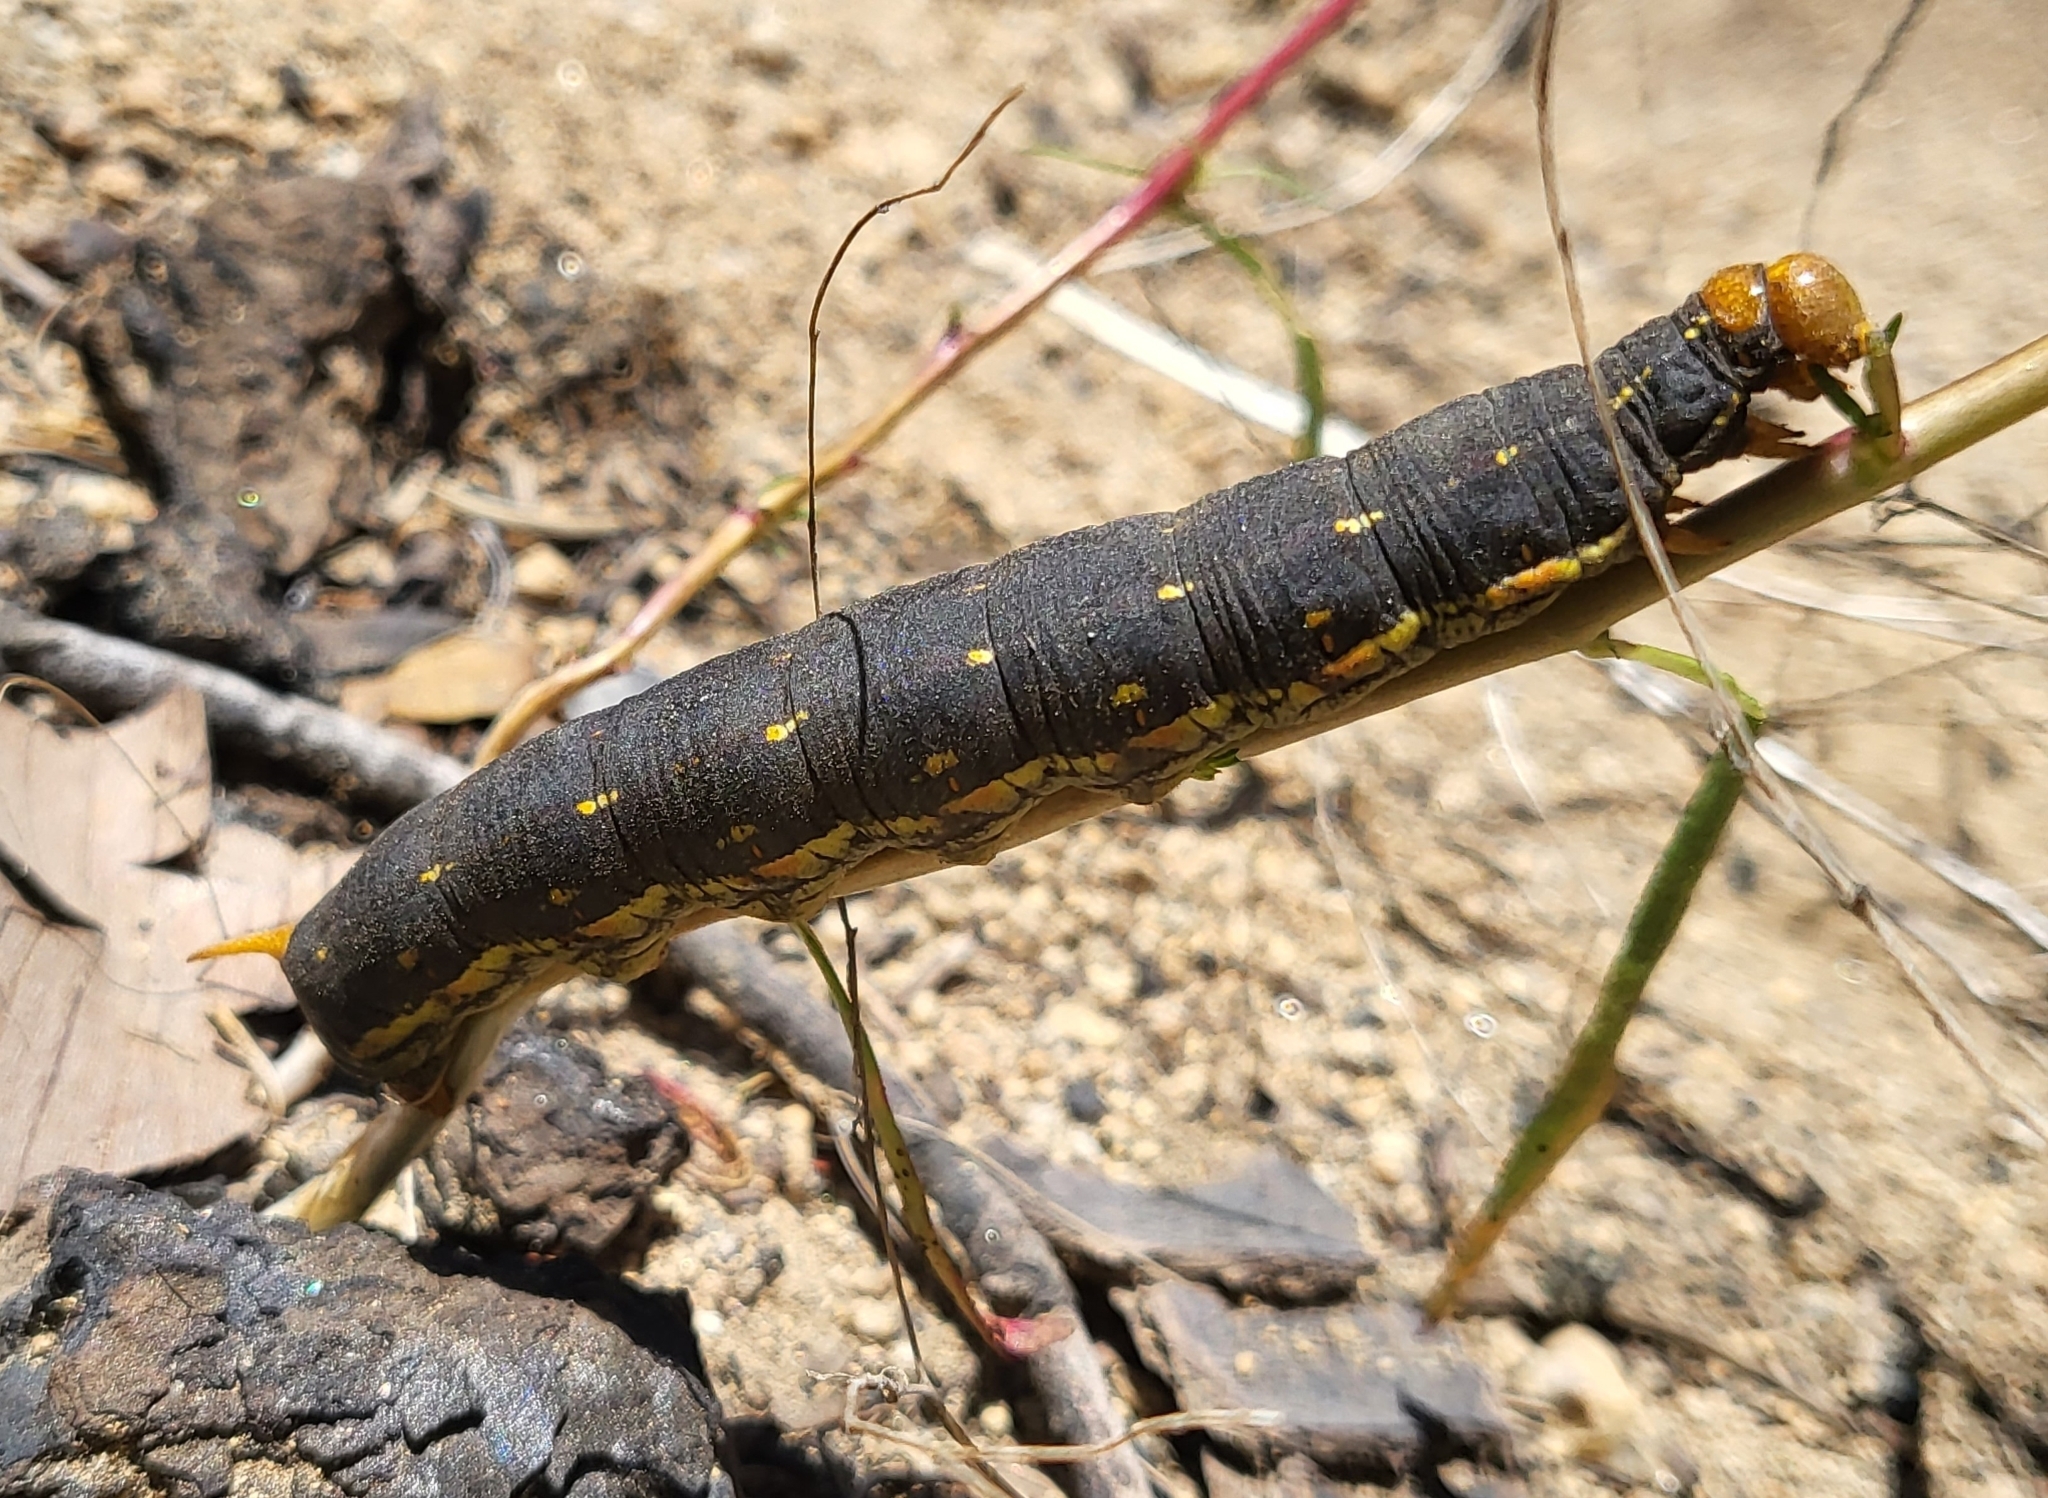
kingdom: Animalia
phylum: Arthropoda
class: Insecta
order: Lepidoptera
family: Sphingidae
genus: Hyles
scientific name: Hyles lineata
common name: White-lined sphinx
